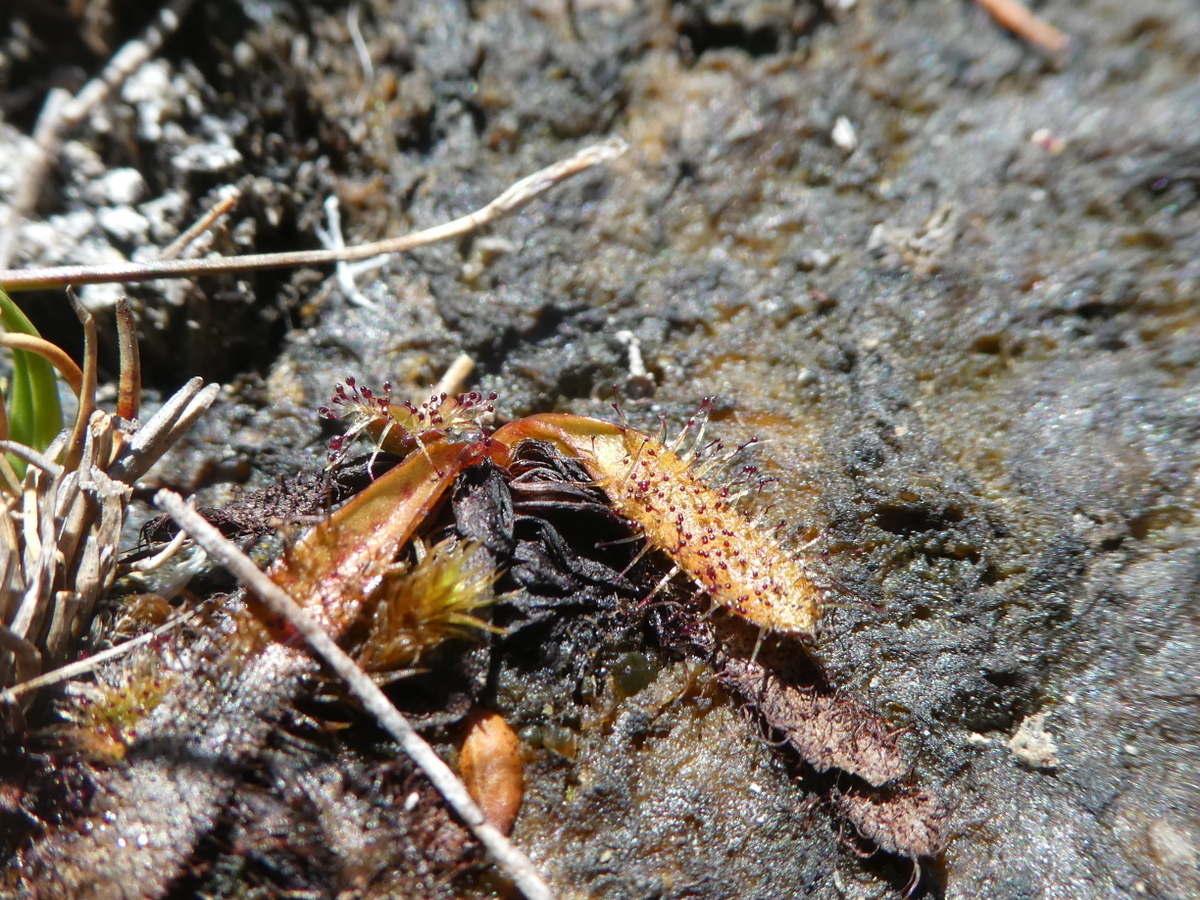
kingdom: Plantae
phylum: Tracheophyta
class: Magnoliopsida
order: Caryophyllales
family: Droseraceae
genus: Drosera
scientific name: Drosera arcturi
